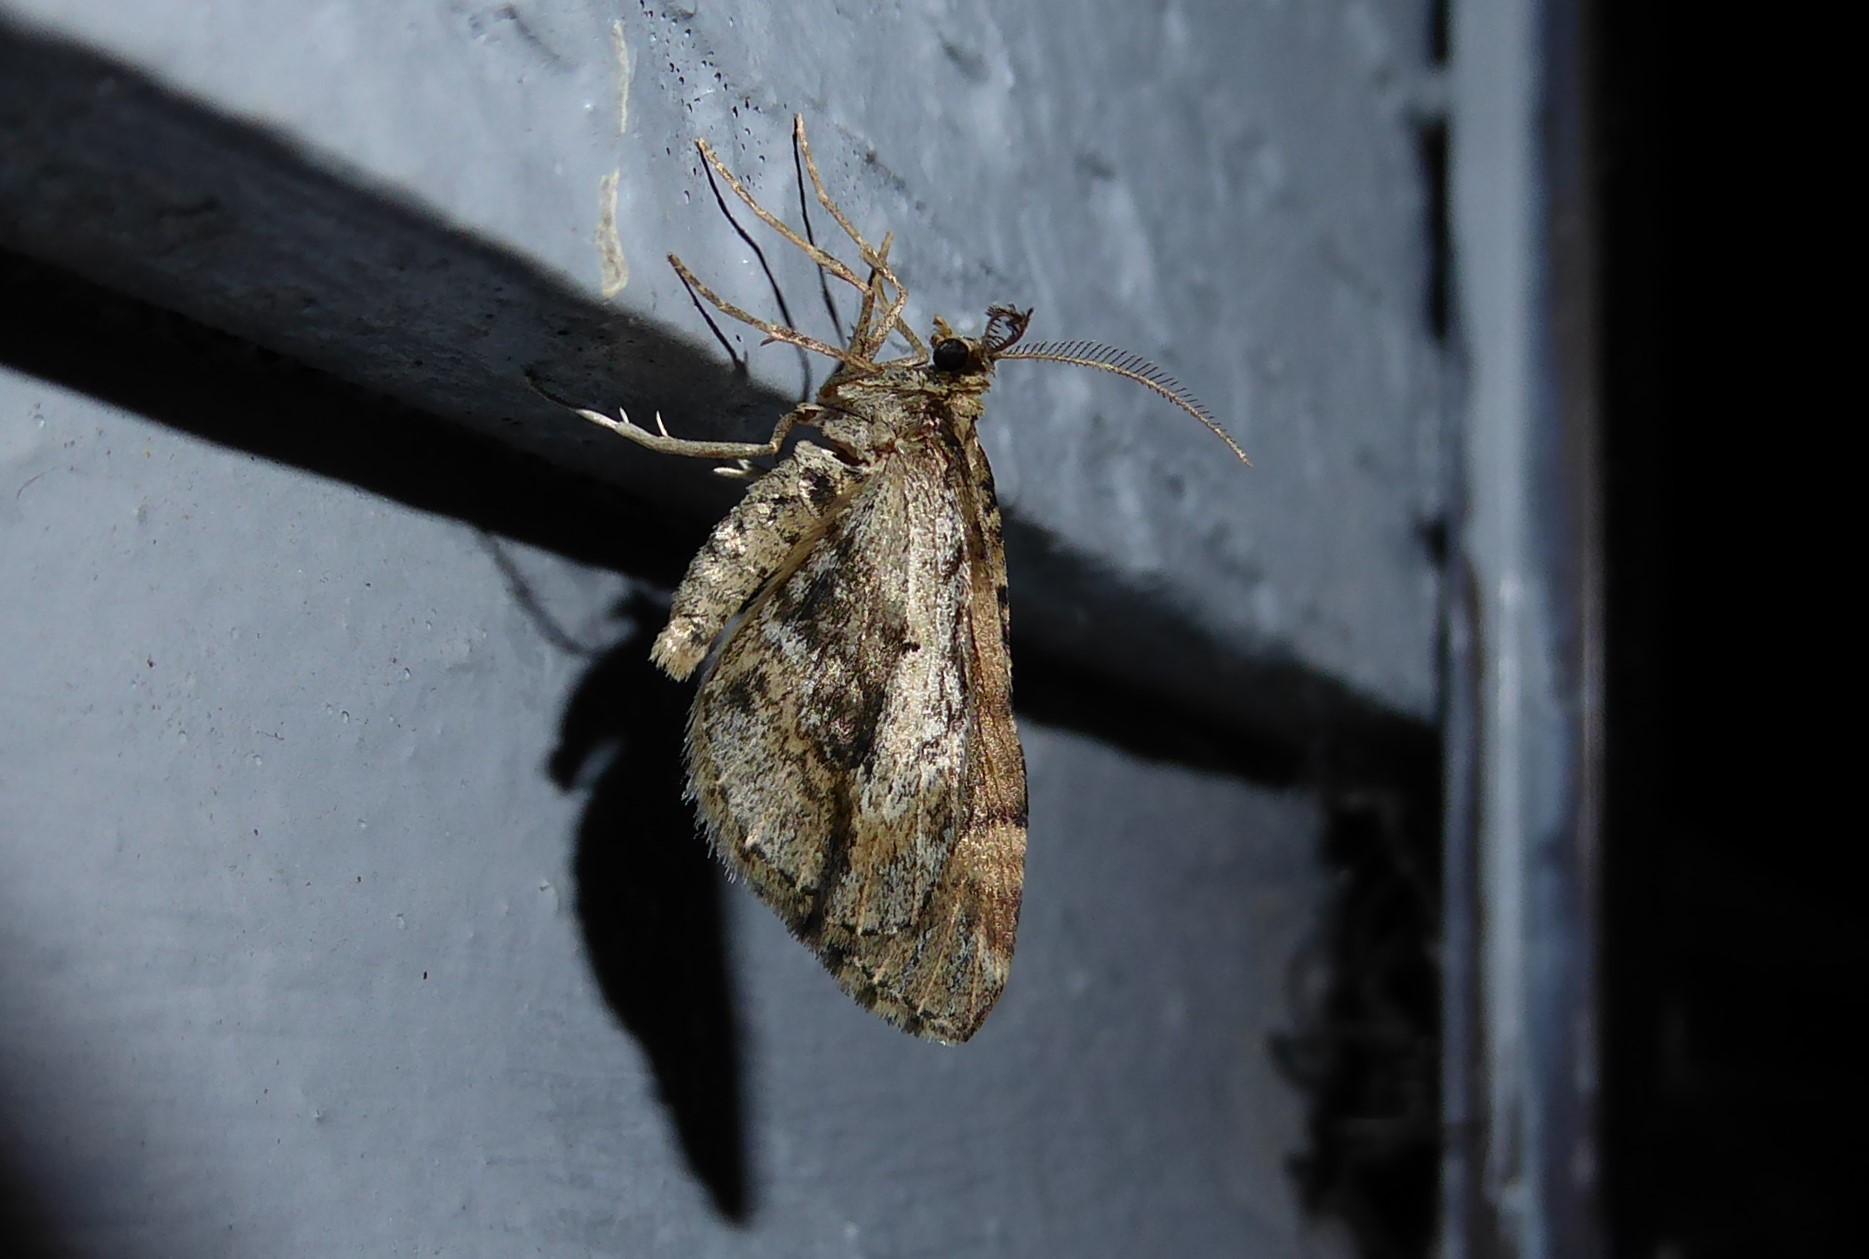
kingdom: Animalia
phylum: Arthropoda
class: Insecta
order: Lepidoptera
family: Geometridae
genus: Asaphodes
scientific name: Asaphodes aegrota
